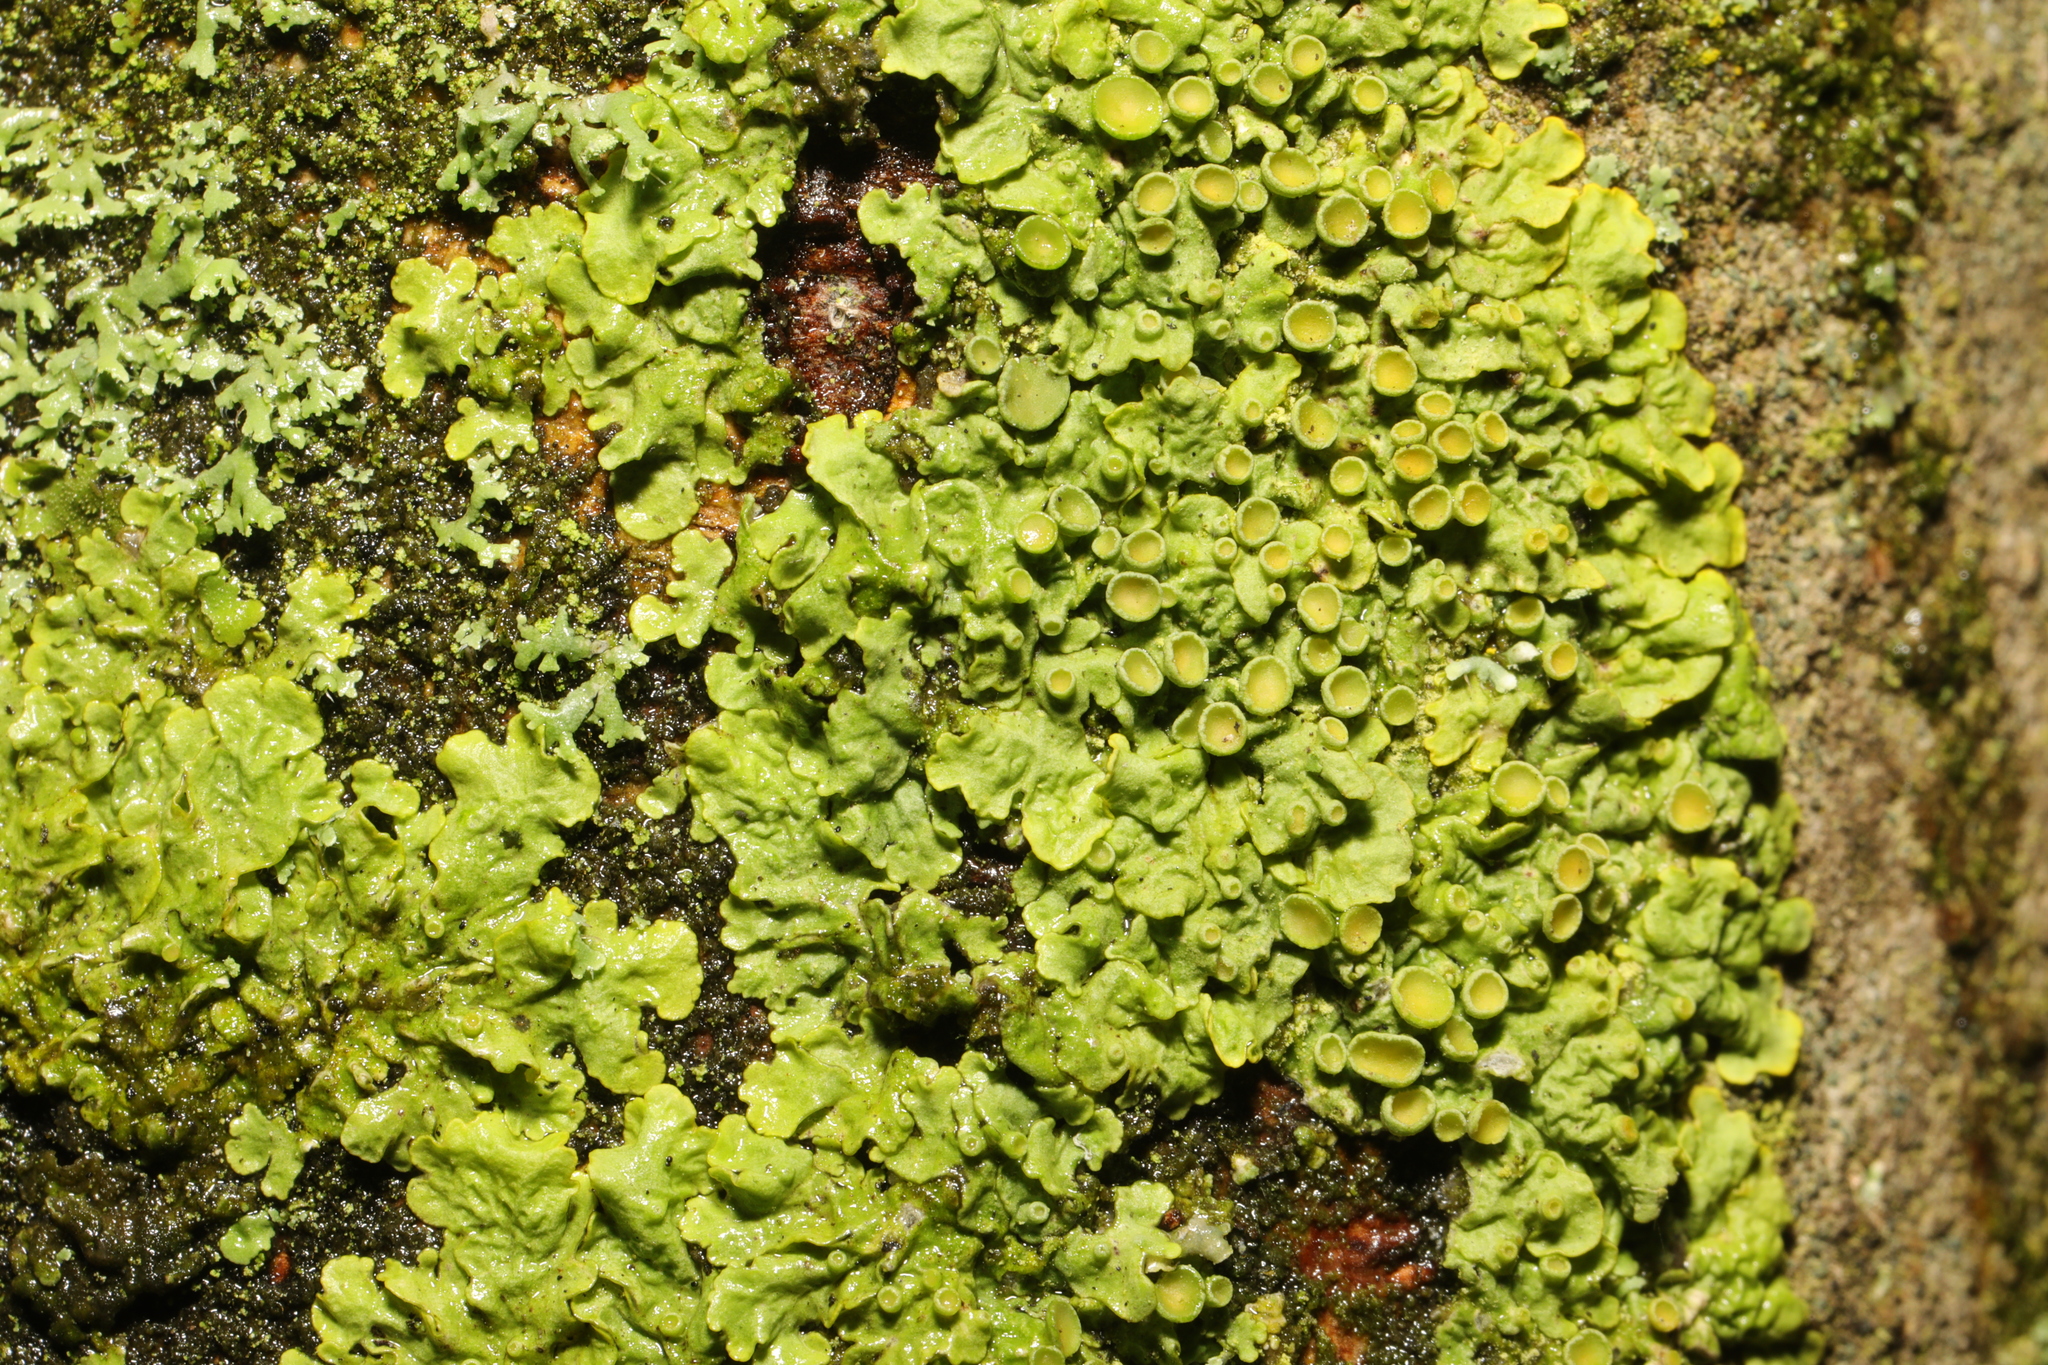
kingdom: Fungi
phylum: Ascomycota
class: Lecanoromycetes
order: Teloschistales
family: Teloschistaceae
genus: Xanthoria
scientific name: Xanthoria parietina
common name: Common orange lichen
